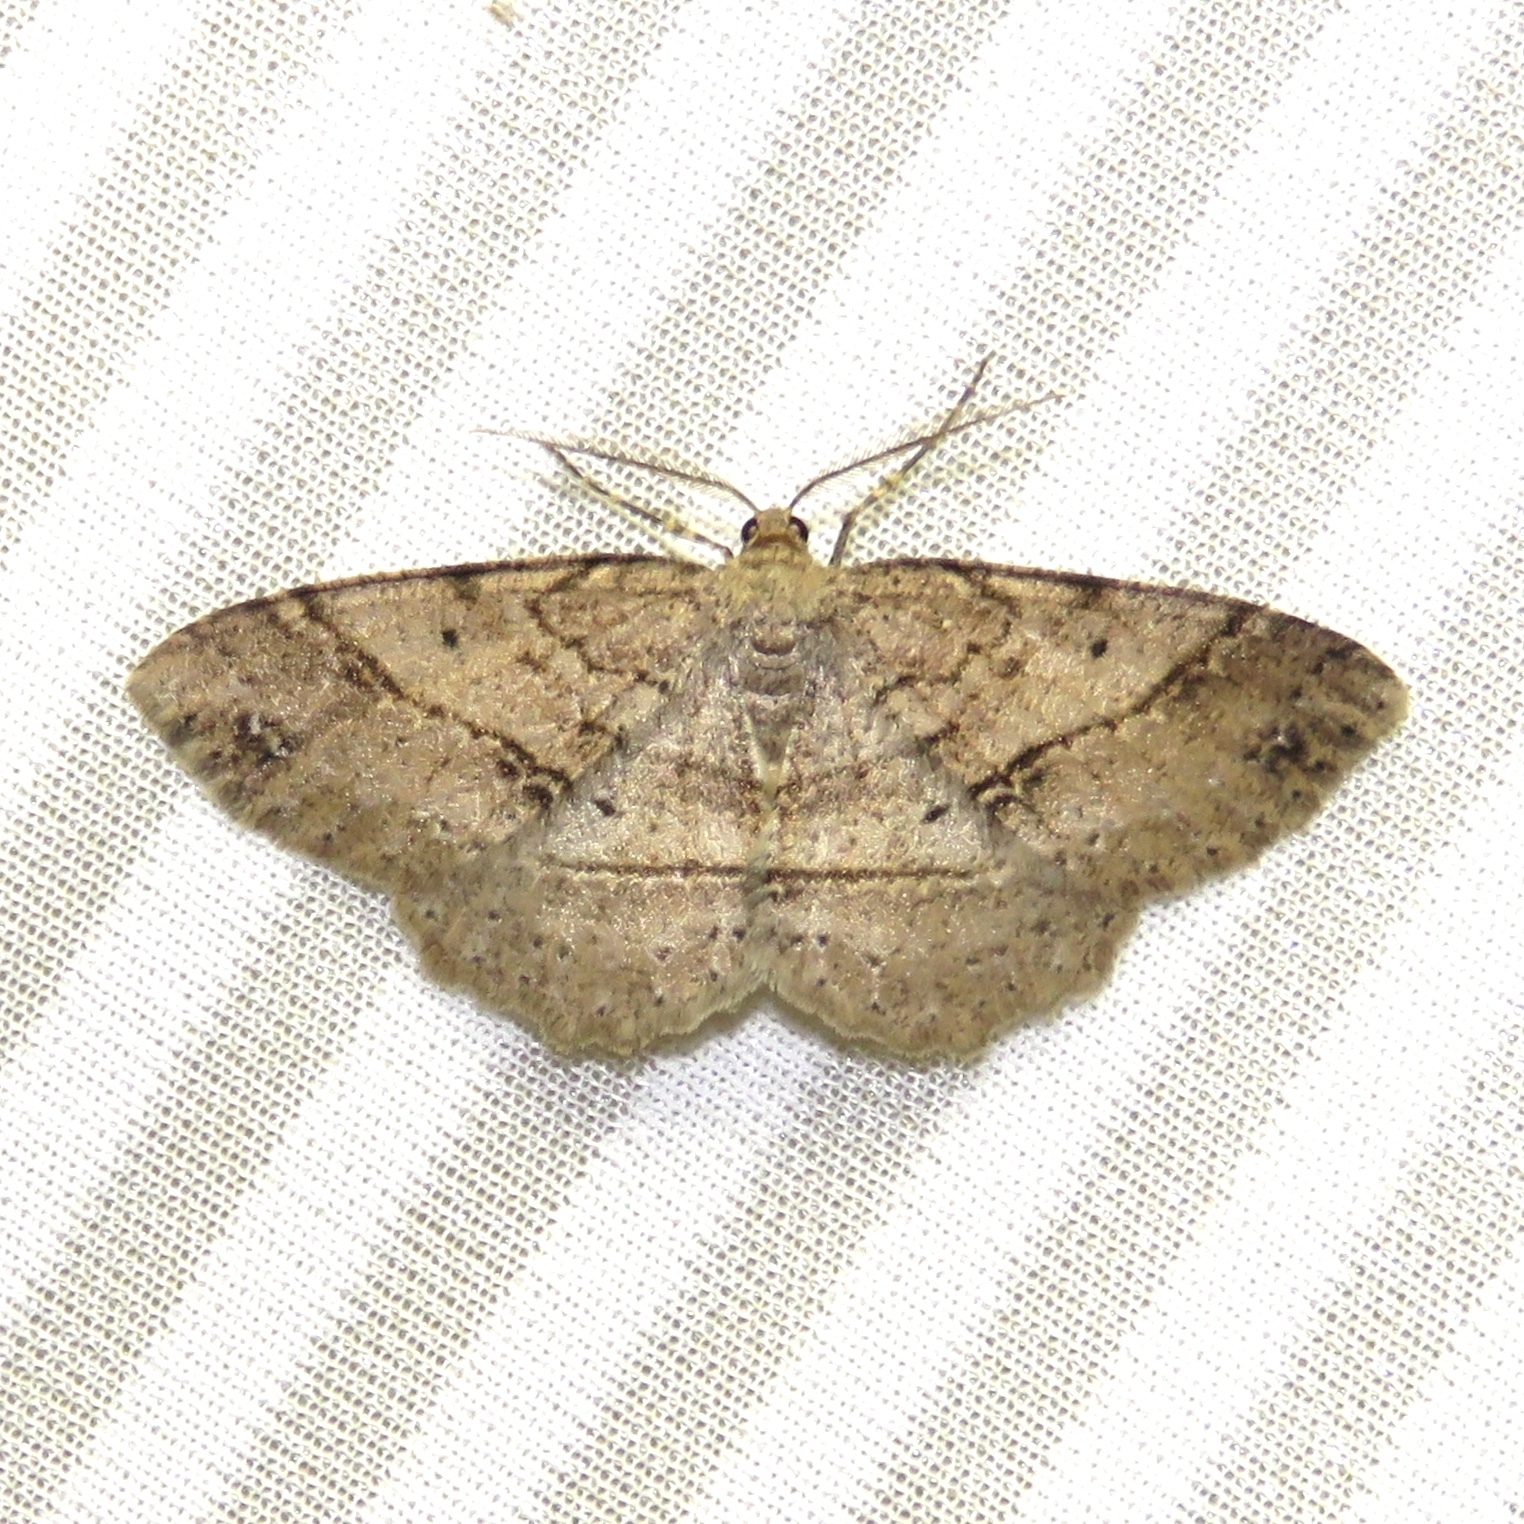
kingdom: Animalia
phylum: Arthropoda
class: Insecta
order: Lepidoptera
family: Geometridae
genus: Melanolophia
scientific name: Melanolophia signataria
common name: Signate melanolophia
